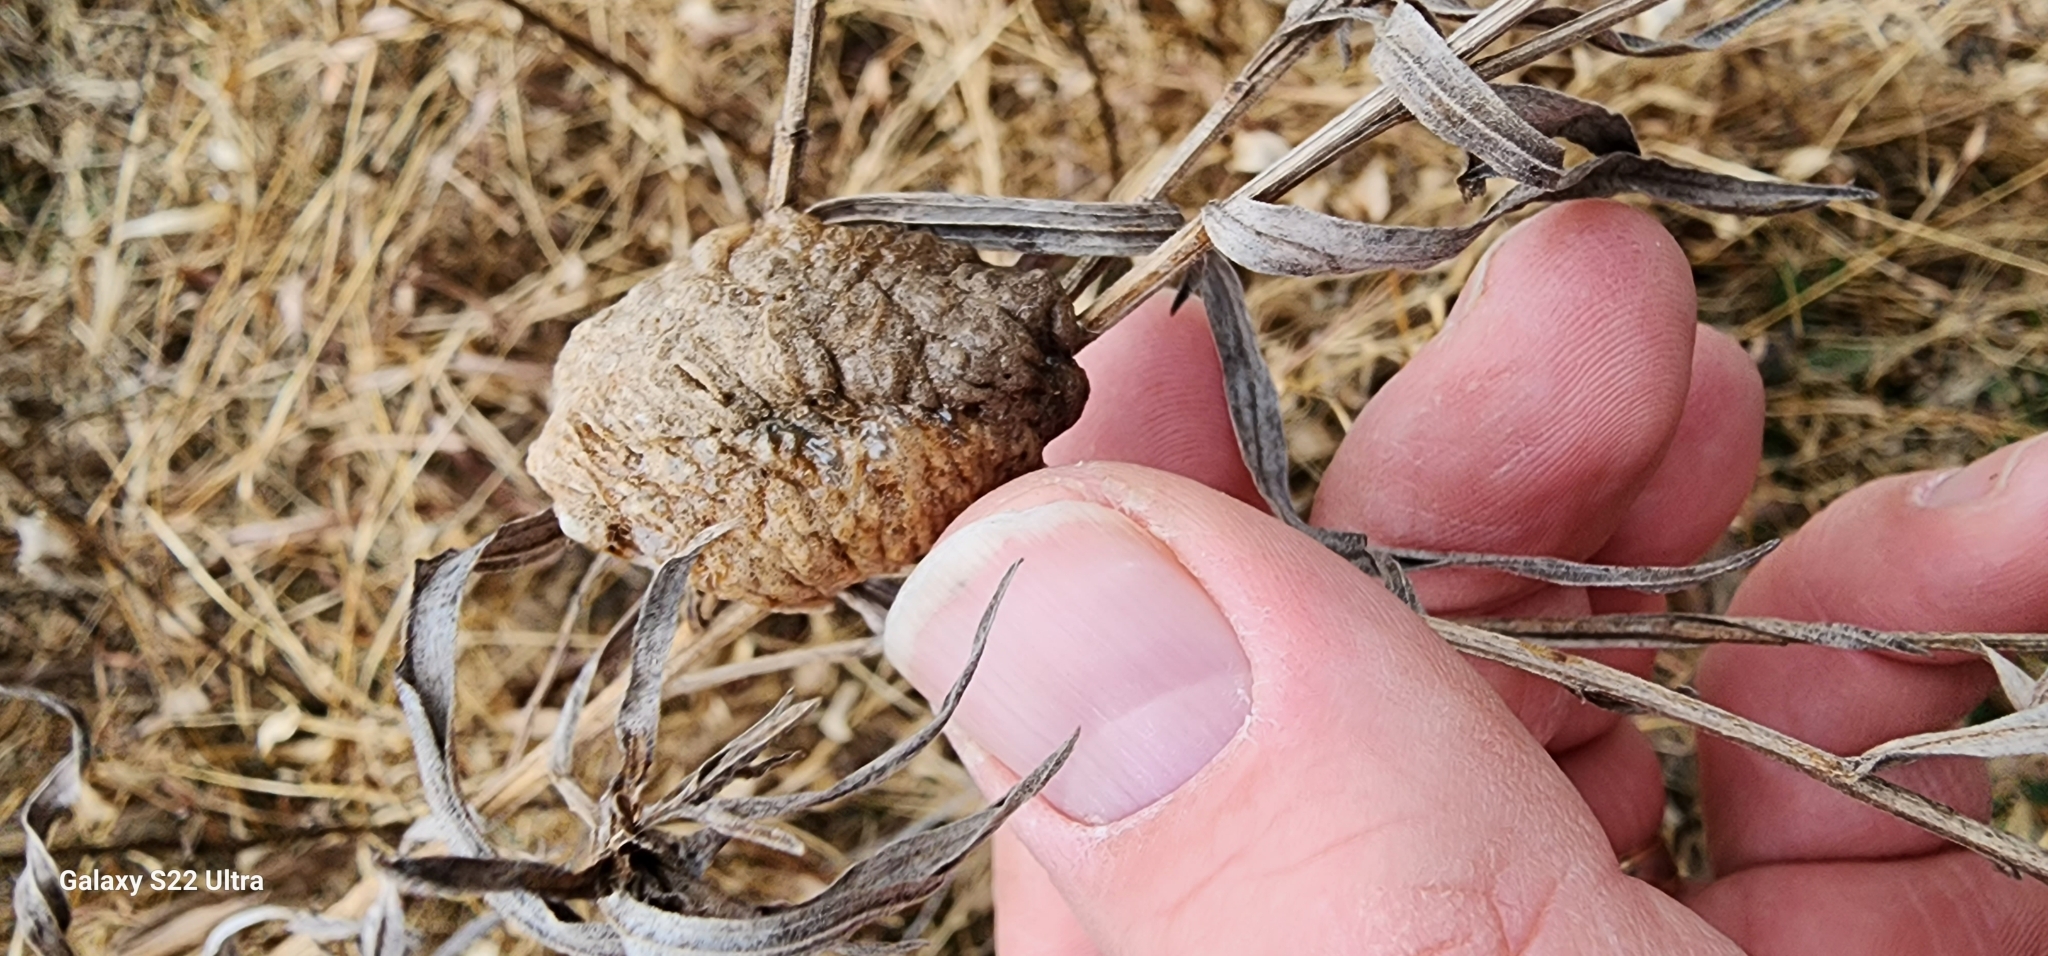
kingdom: Animalia
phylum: Arthropoda
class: Insecta
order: Mantodea
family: Mantidae
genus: Tenodera
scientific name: Tenodera sinensis
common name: Chinese mantis
